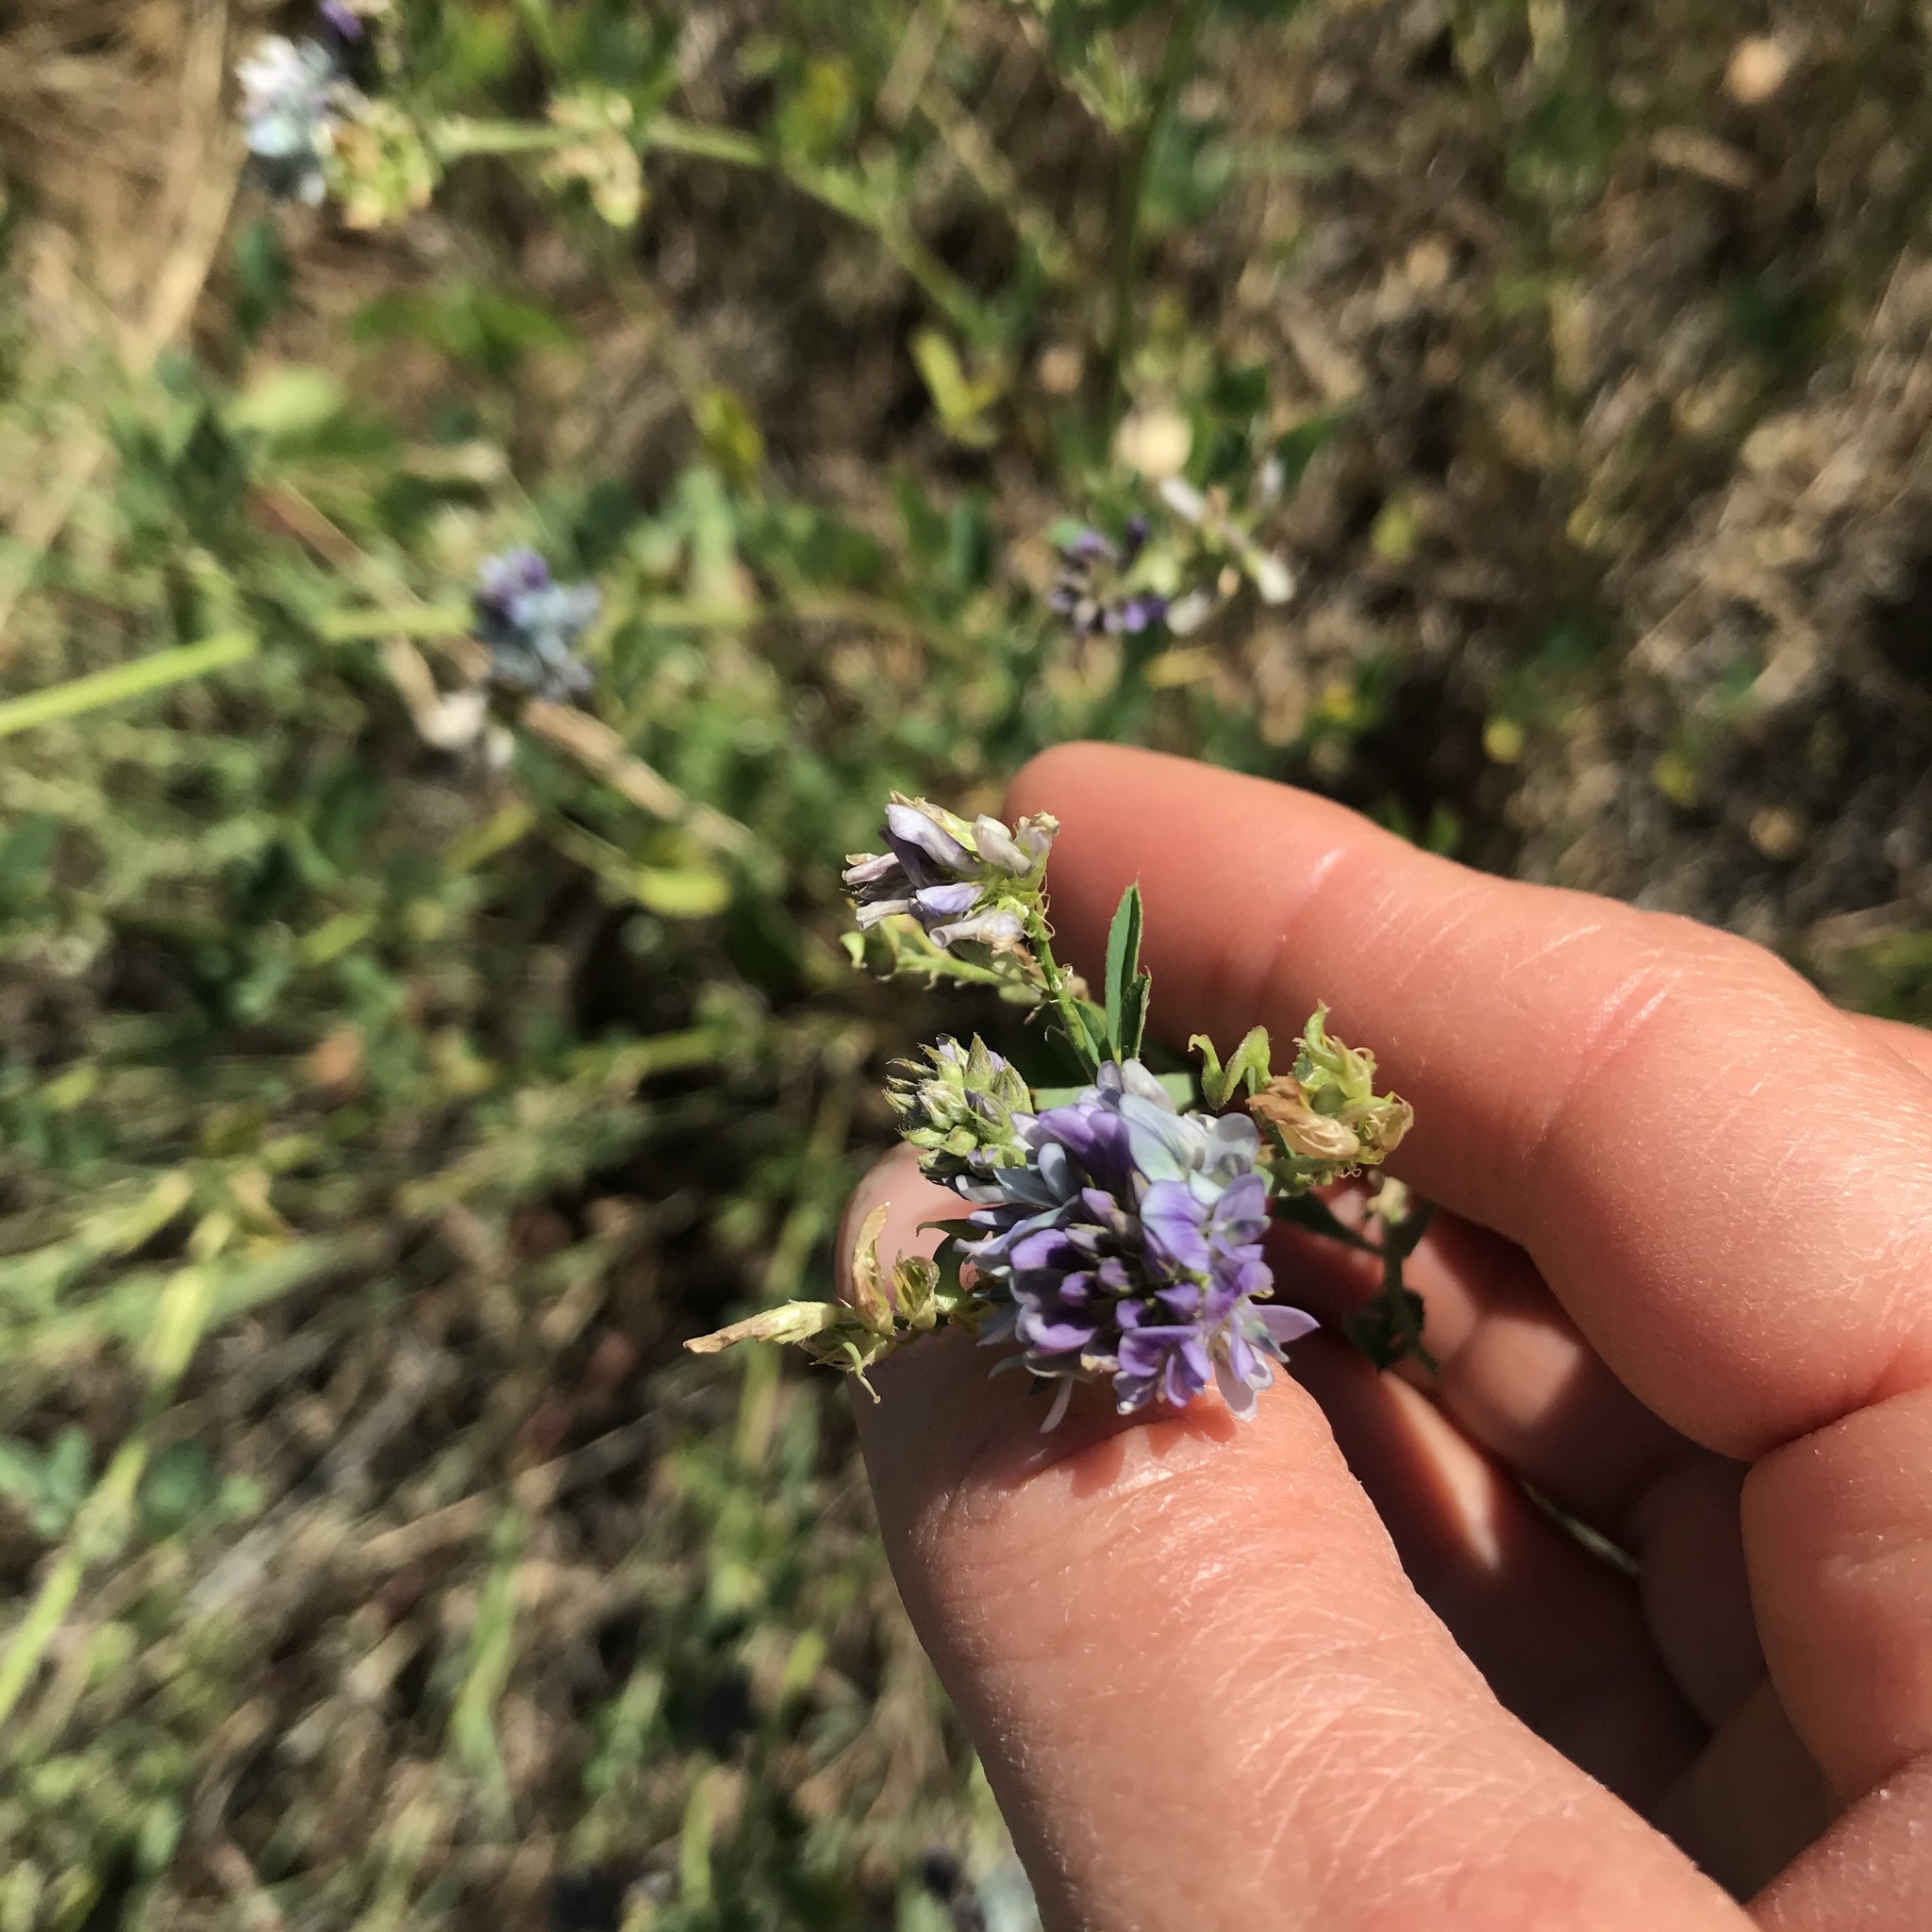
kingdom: Plantae
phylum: Tracheophyta
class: Magnoliopsida
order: Fabales
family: Fabaceae
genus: Medicago
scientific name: Medicago sativa
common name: Alfalfa
